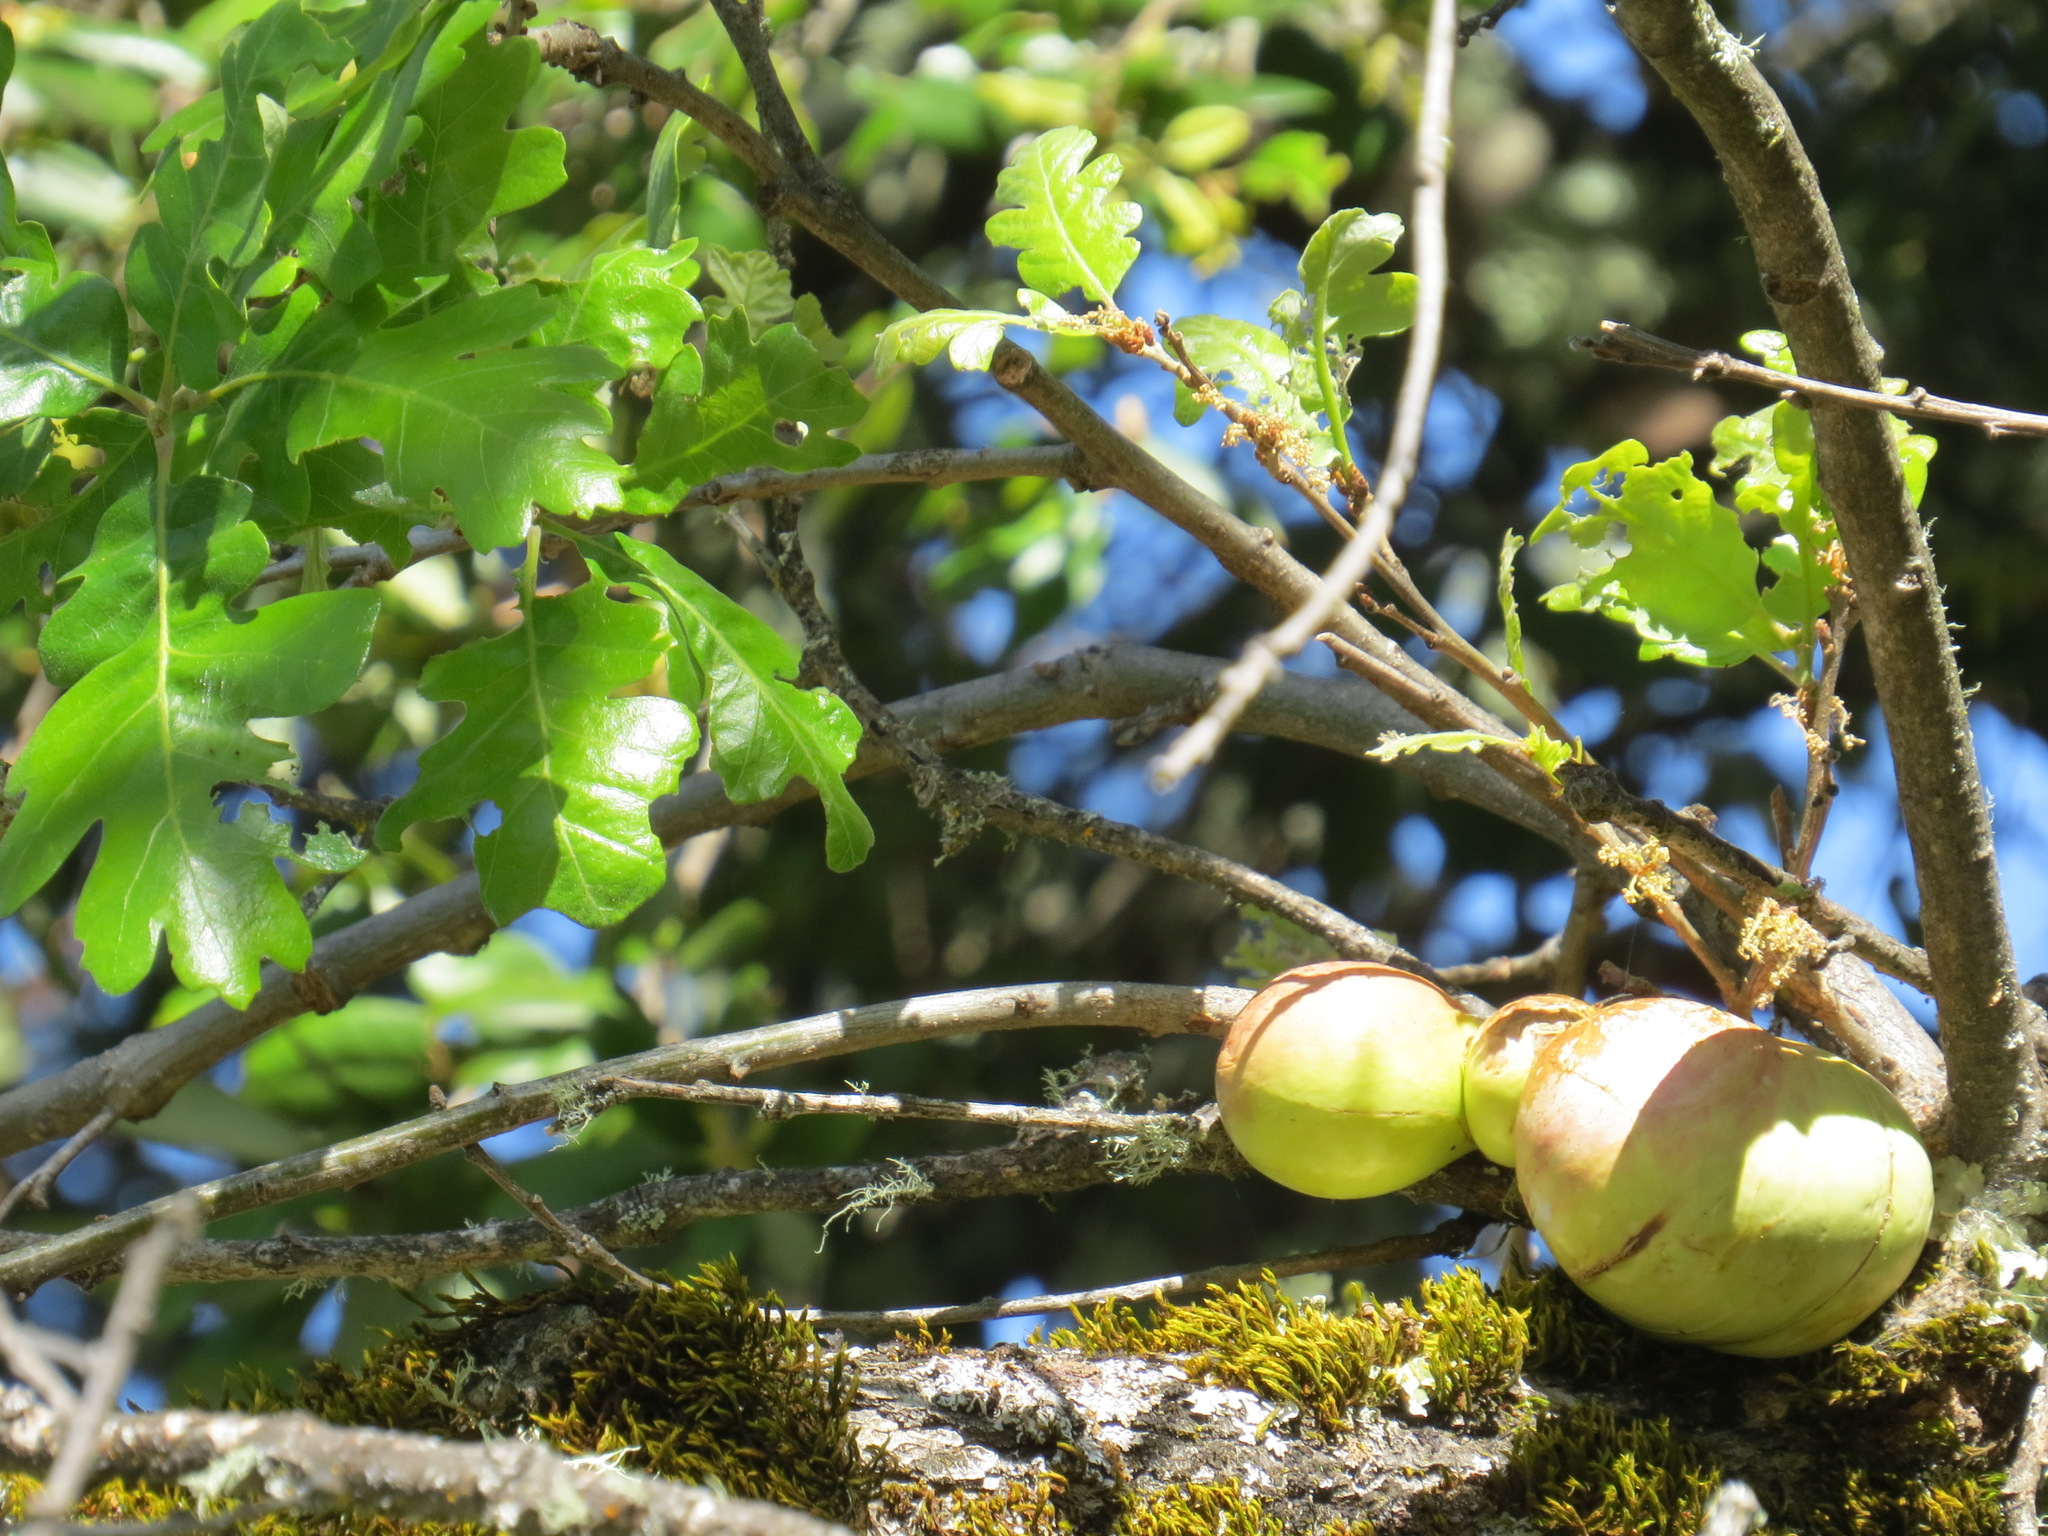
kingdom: Animalia
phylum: Arthropoda
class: Insecta
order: Hymenoptera
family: Cynipidae
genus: Andricus
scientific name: Andricus quercuscalifornicus
